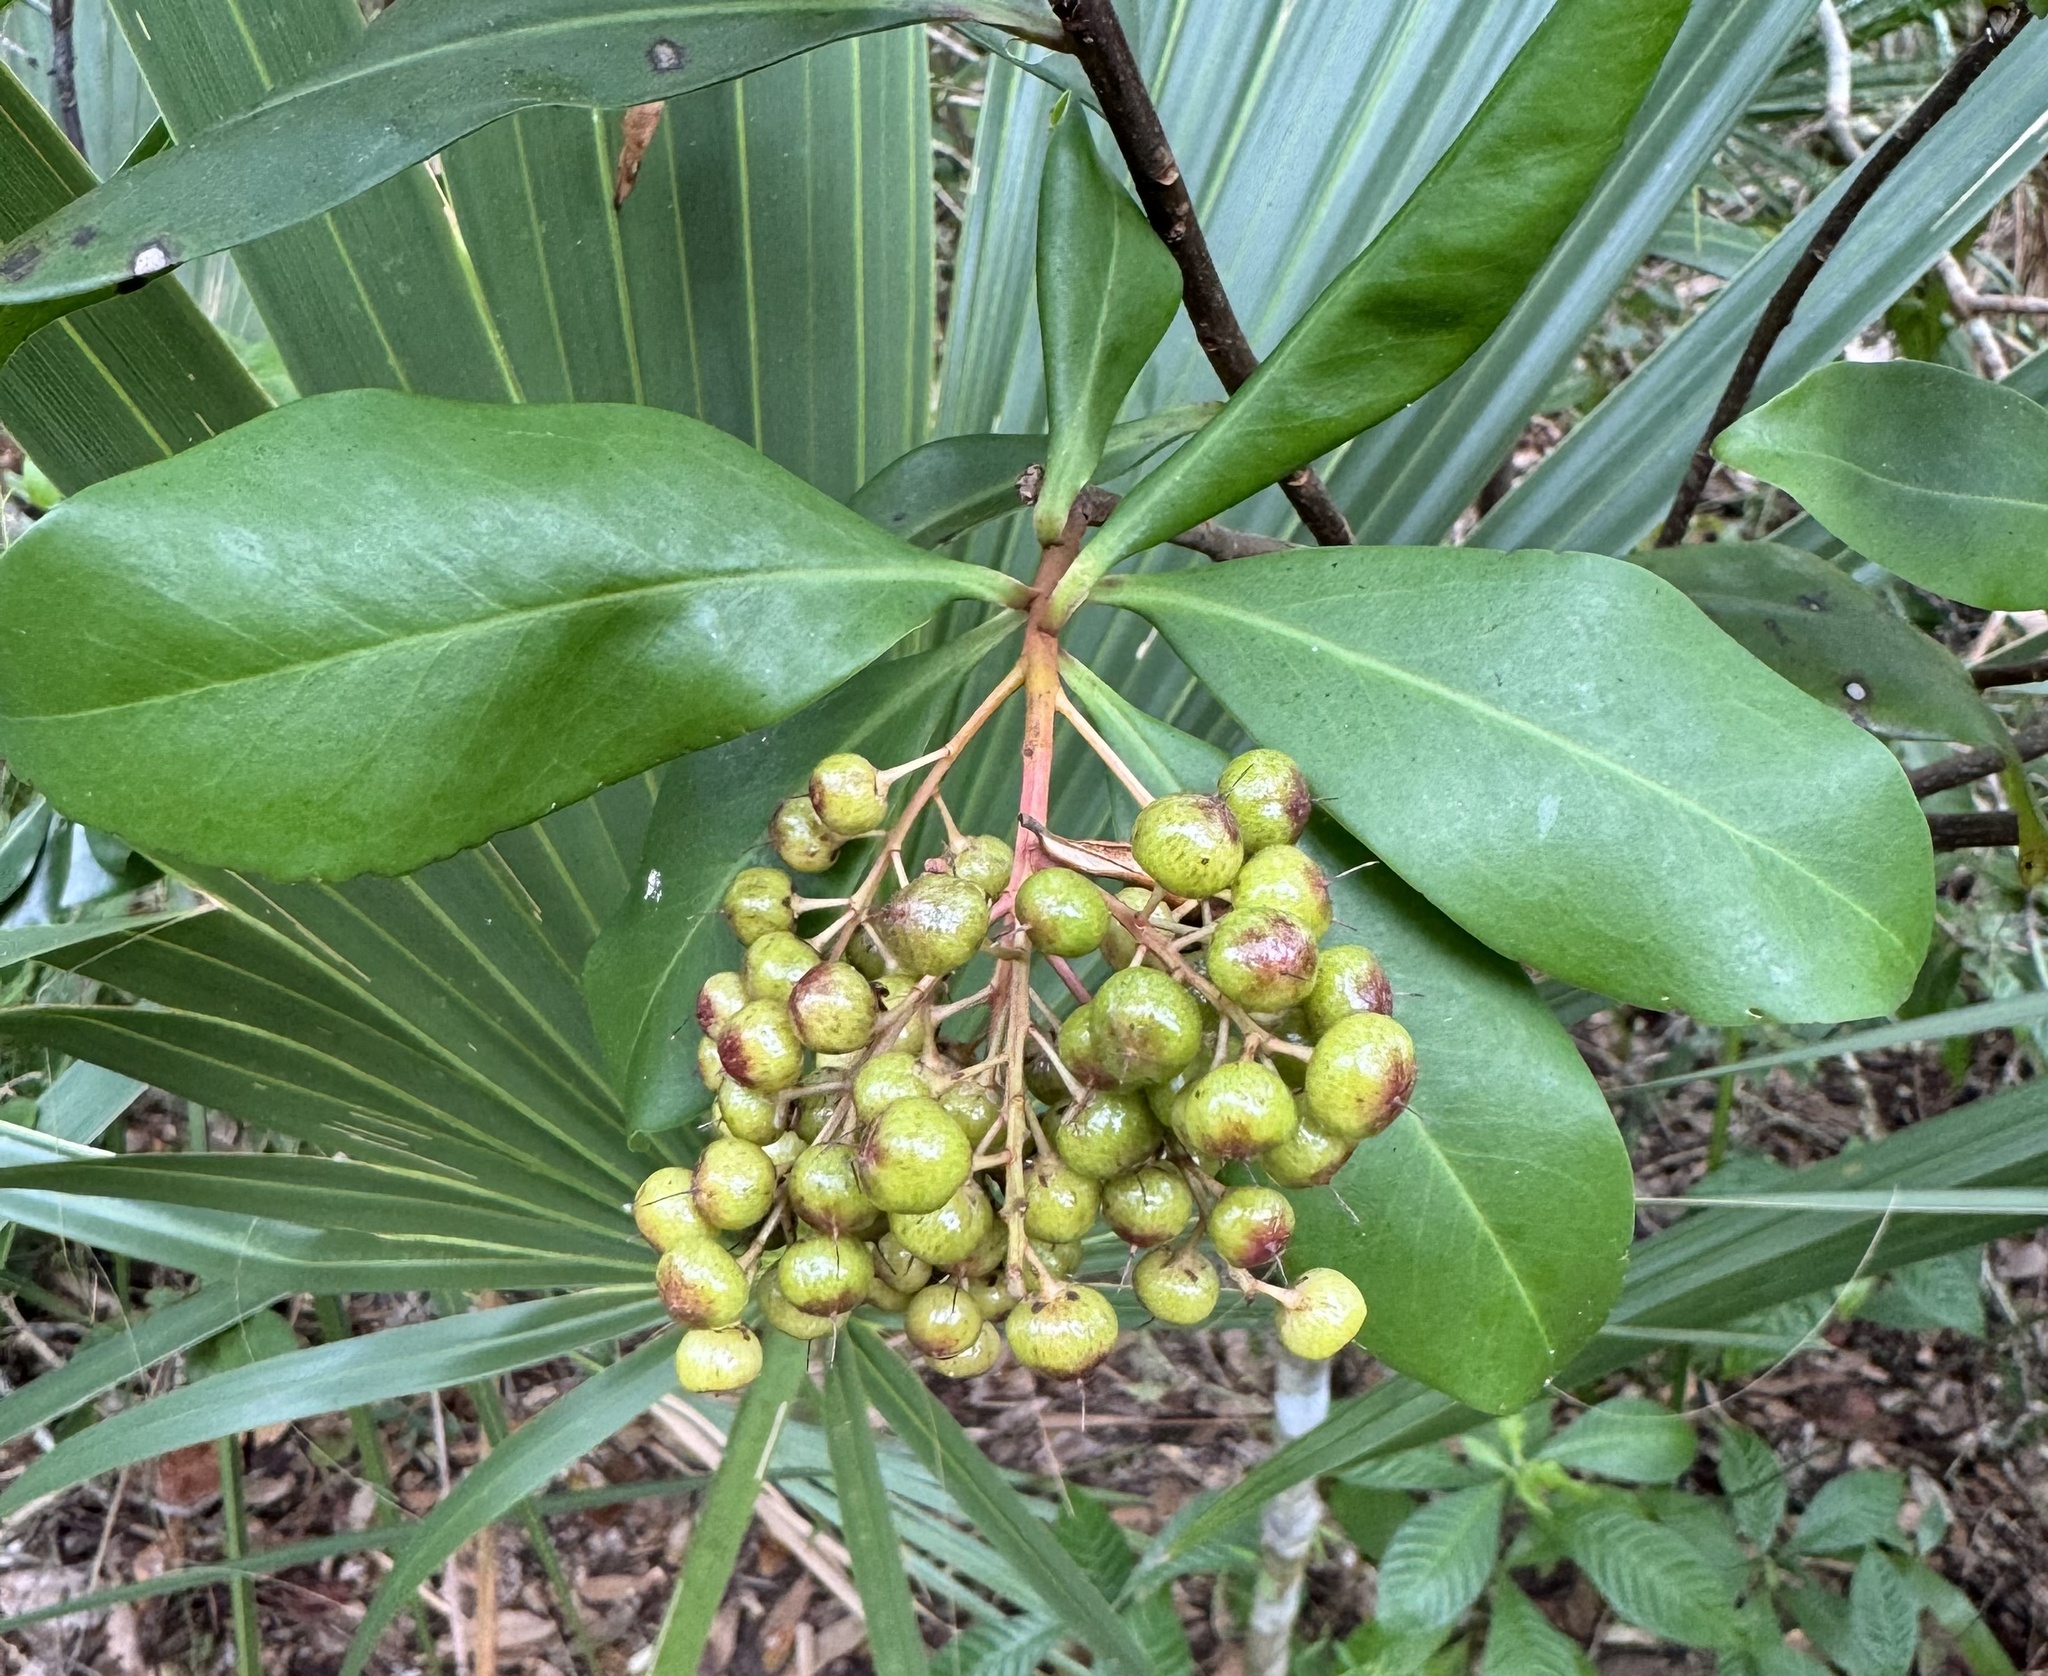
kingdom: Plantae
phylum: Tracheophyta
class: Magnoliopsida
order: Ericales
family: Primulaceae
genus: Ardisia
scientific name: Ardisia escallonioides
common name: Island marlberry
